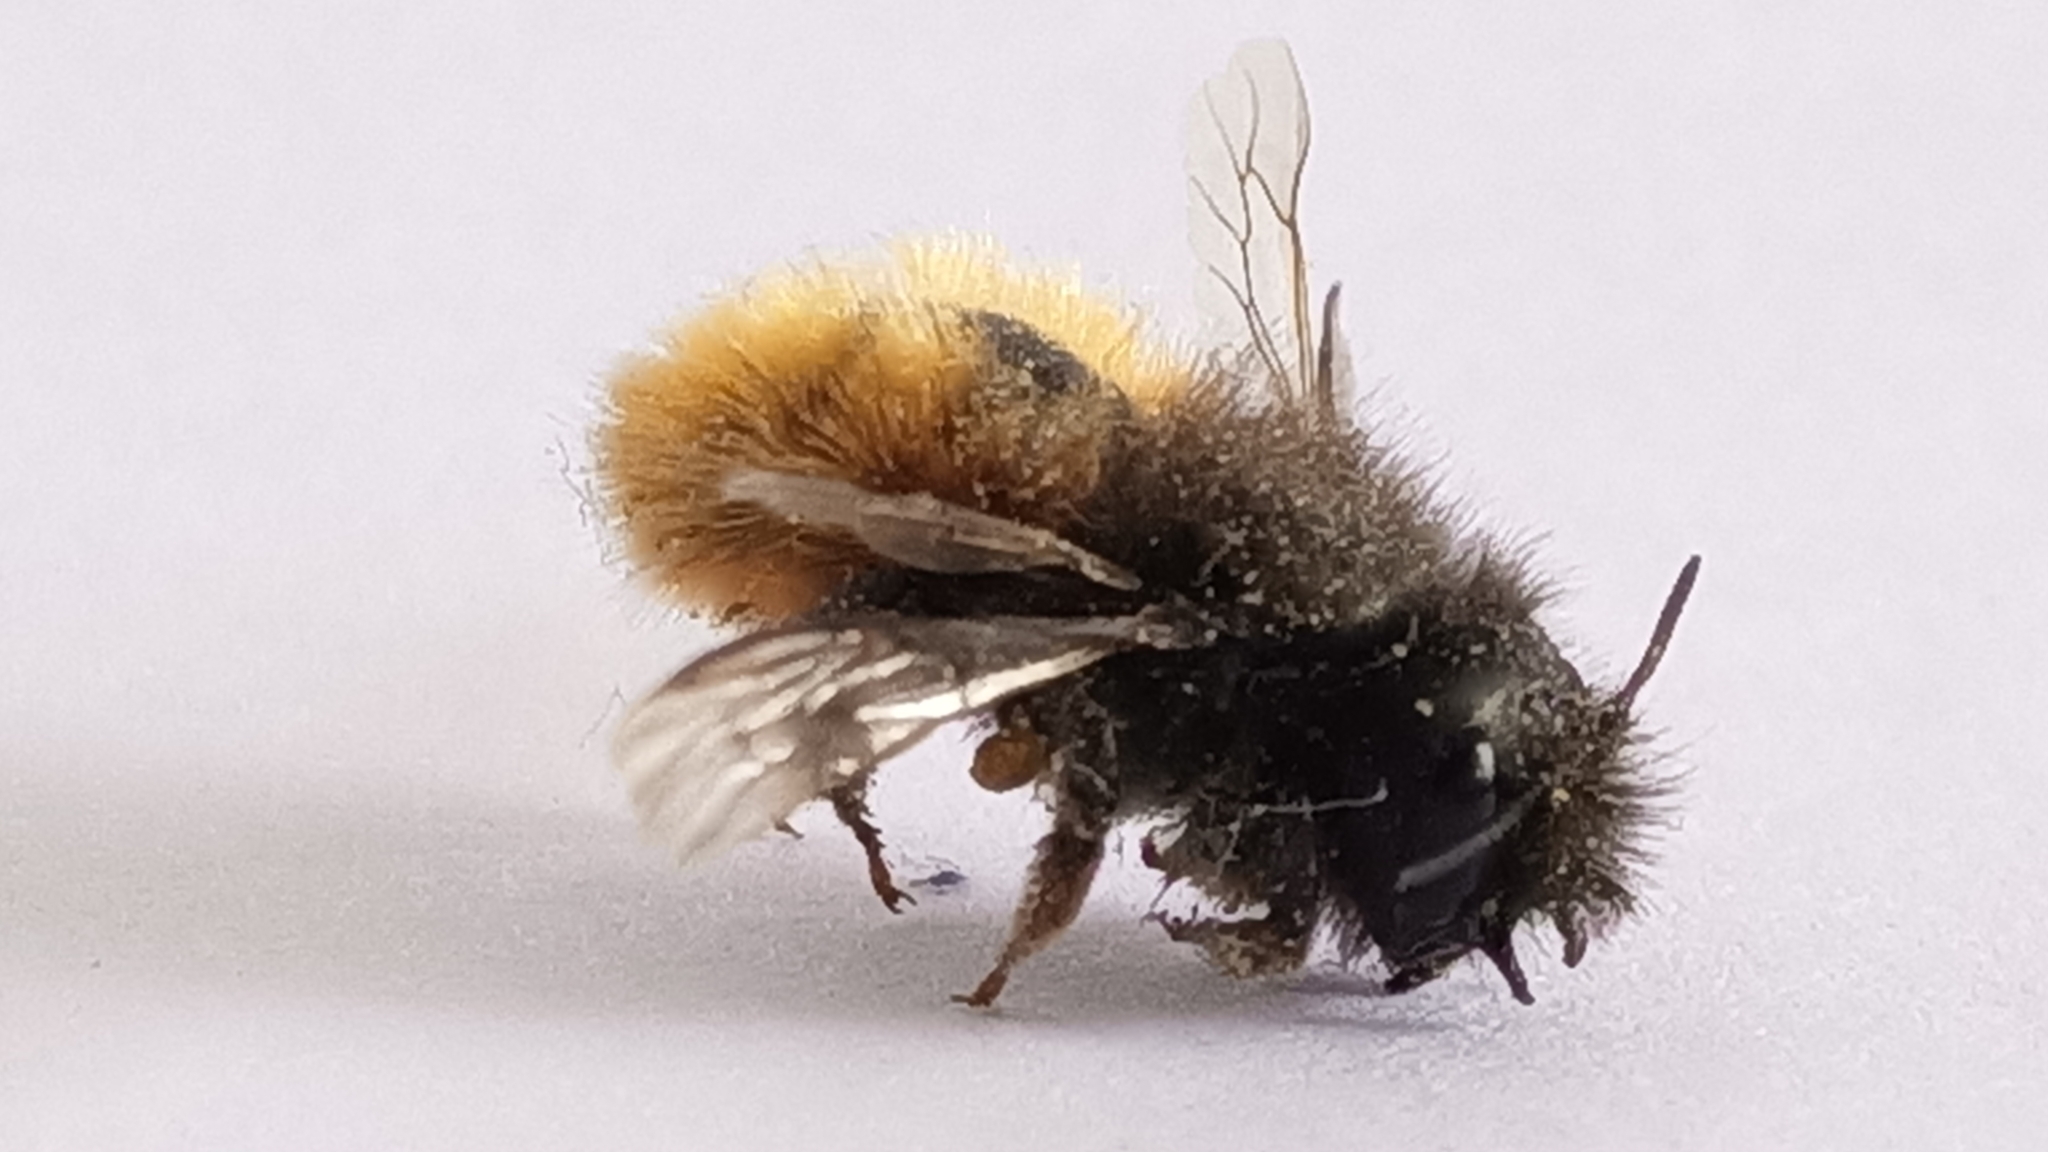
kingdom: Animalia
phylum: Arthropoda
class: Insecta
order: Hymenoptera
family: Megachilidae
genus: Osmia
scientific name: Osmia cornuta
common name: Mason bee
